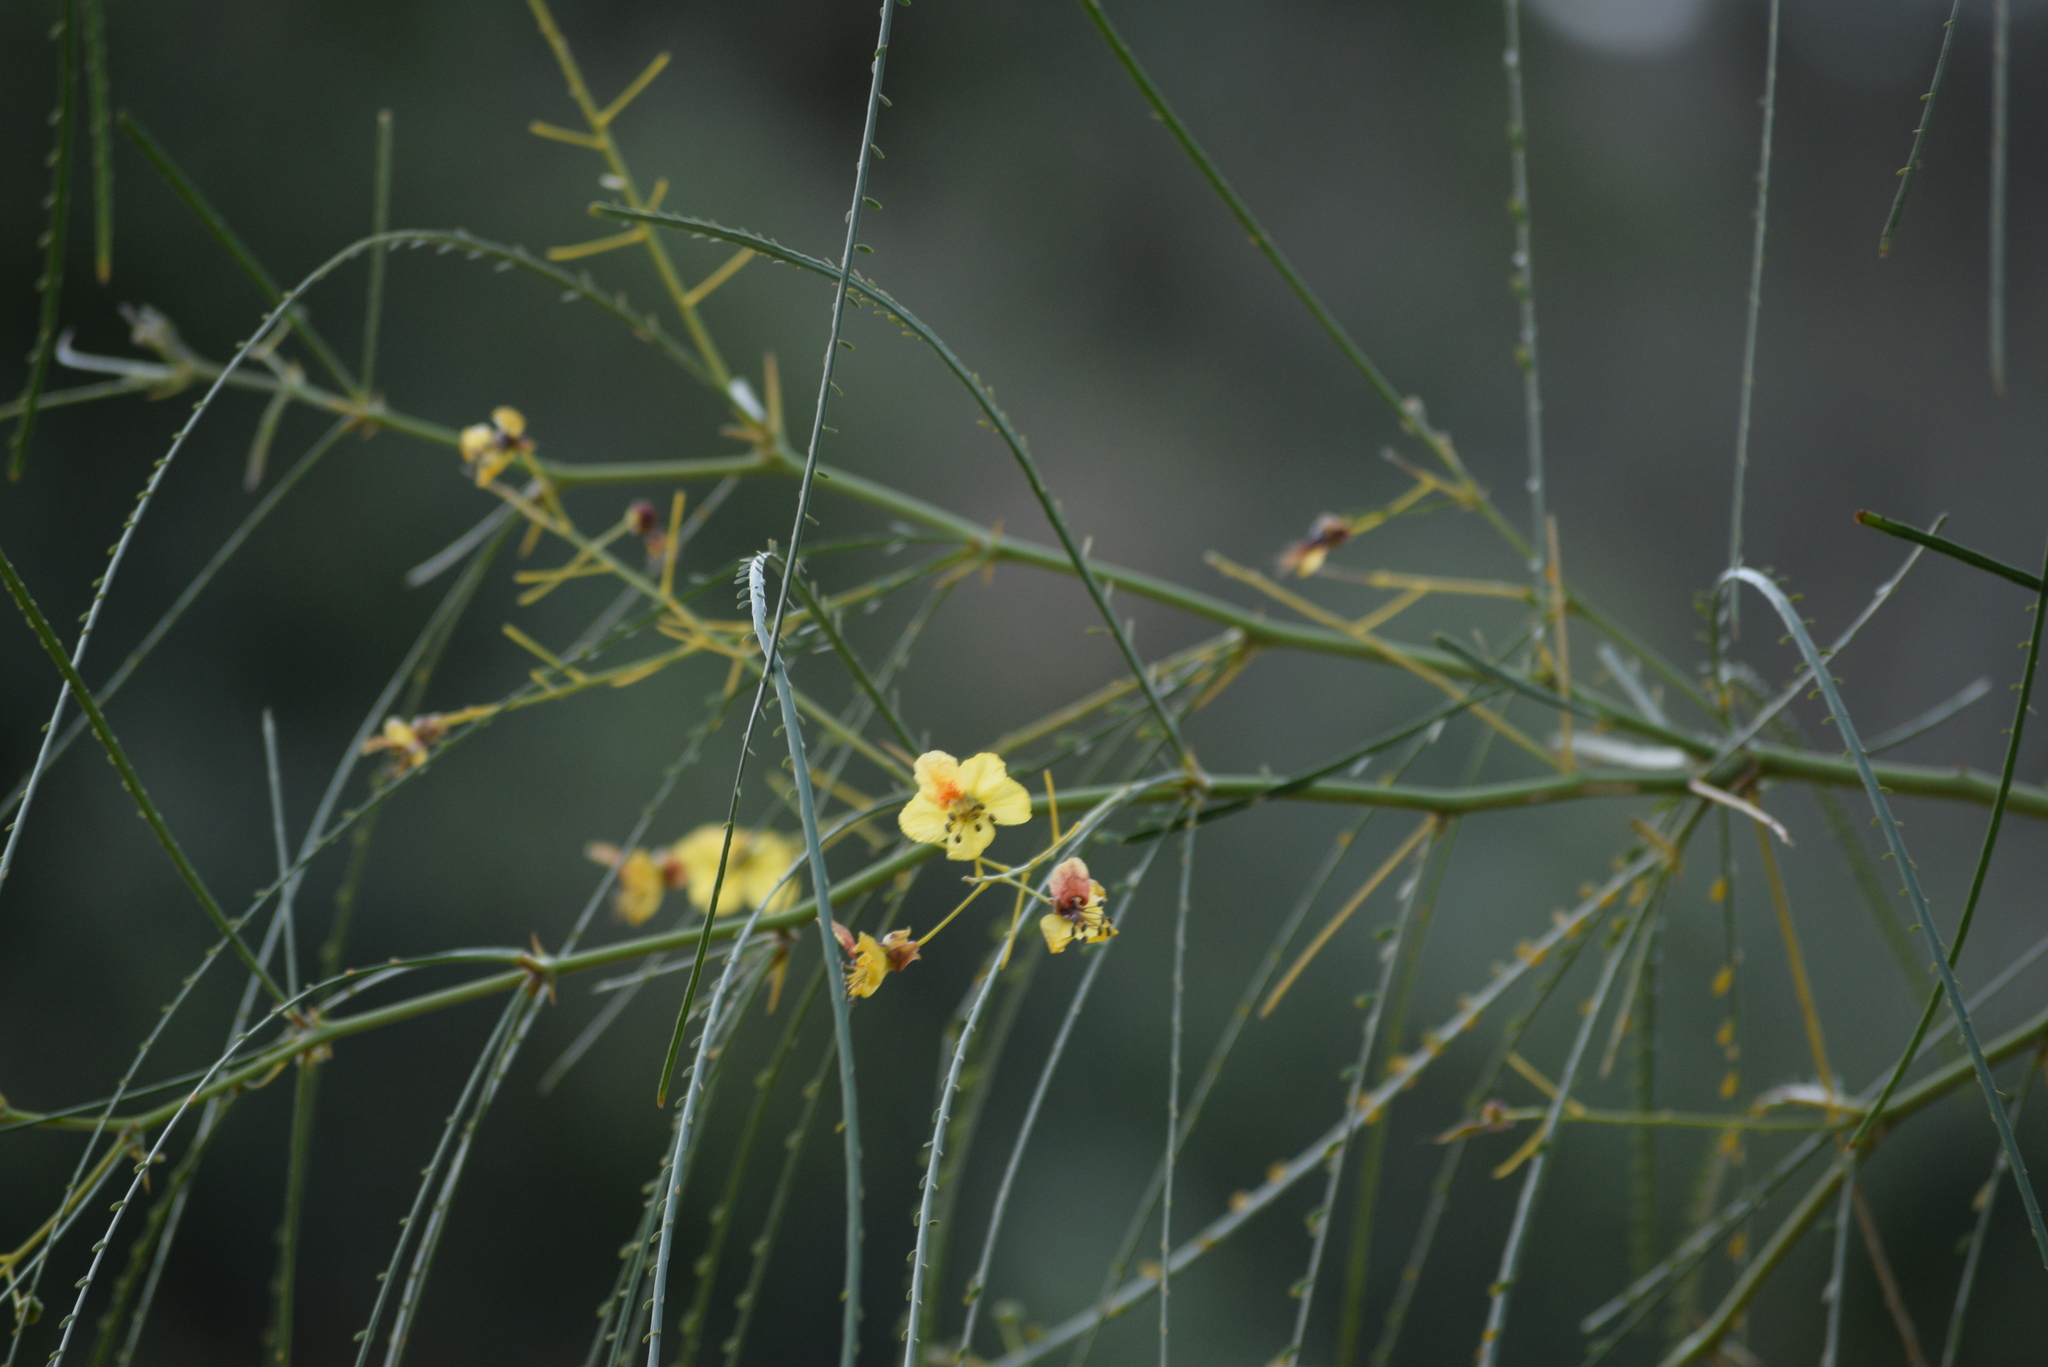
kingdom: Plantae
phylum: Tracheophyta
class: Magnoliopsida
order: Fabales
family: Fabaceae
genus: Parkinsonia
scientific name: Parkinsonia aculeata
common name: Jerusalem thorn
